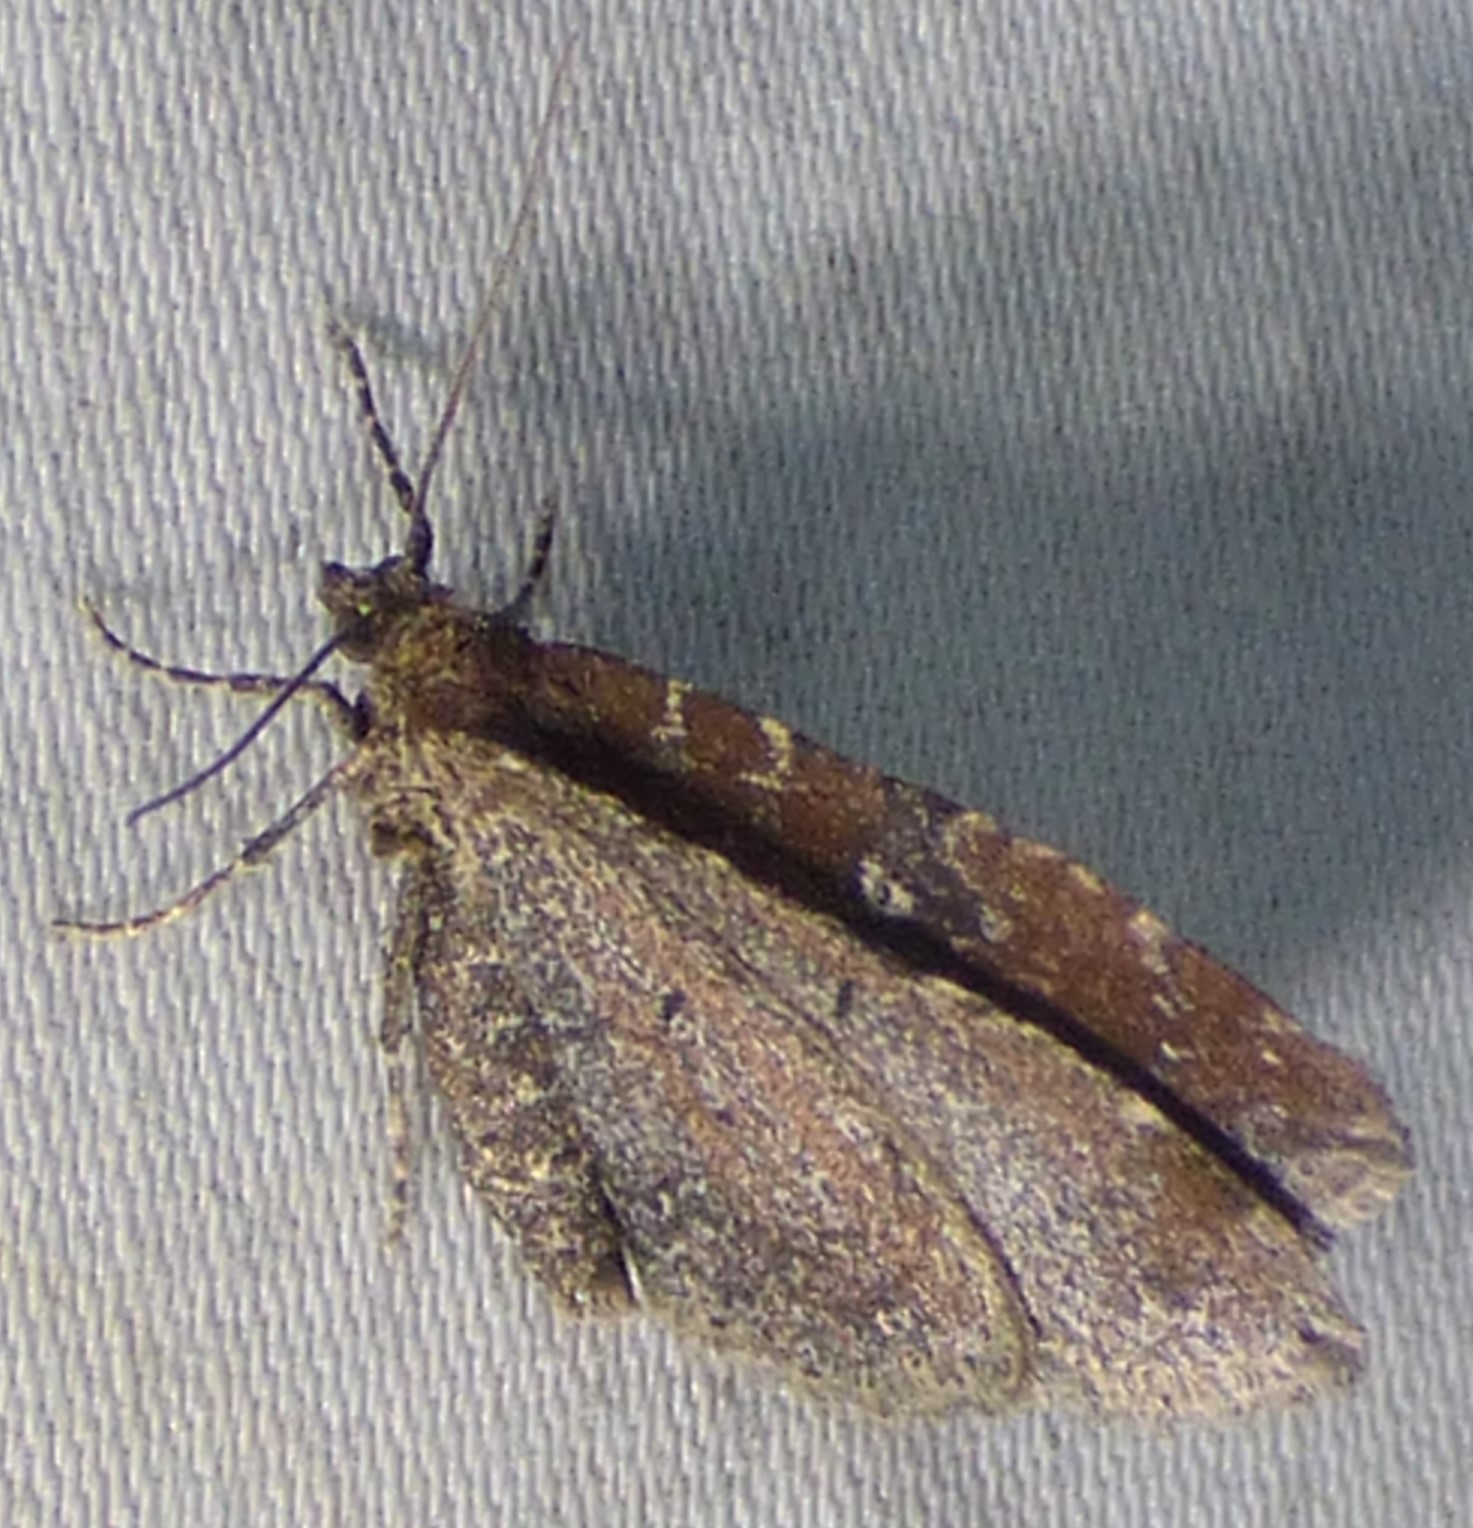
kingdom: Animalia
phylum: Arthropoda
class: Insecta
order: Lepidoptera
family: Geometridae
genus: Orthonama
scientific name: Orthonama obstipata
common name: The gem
